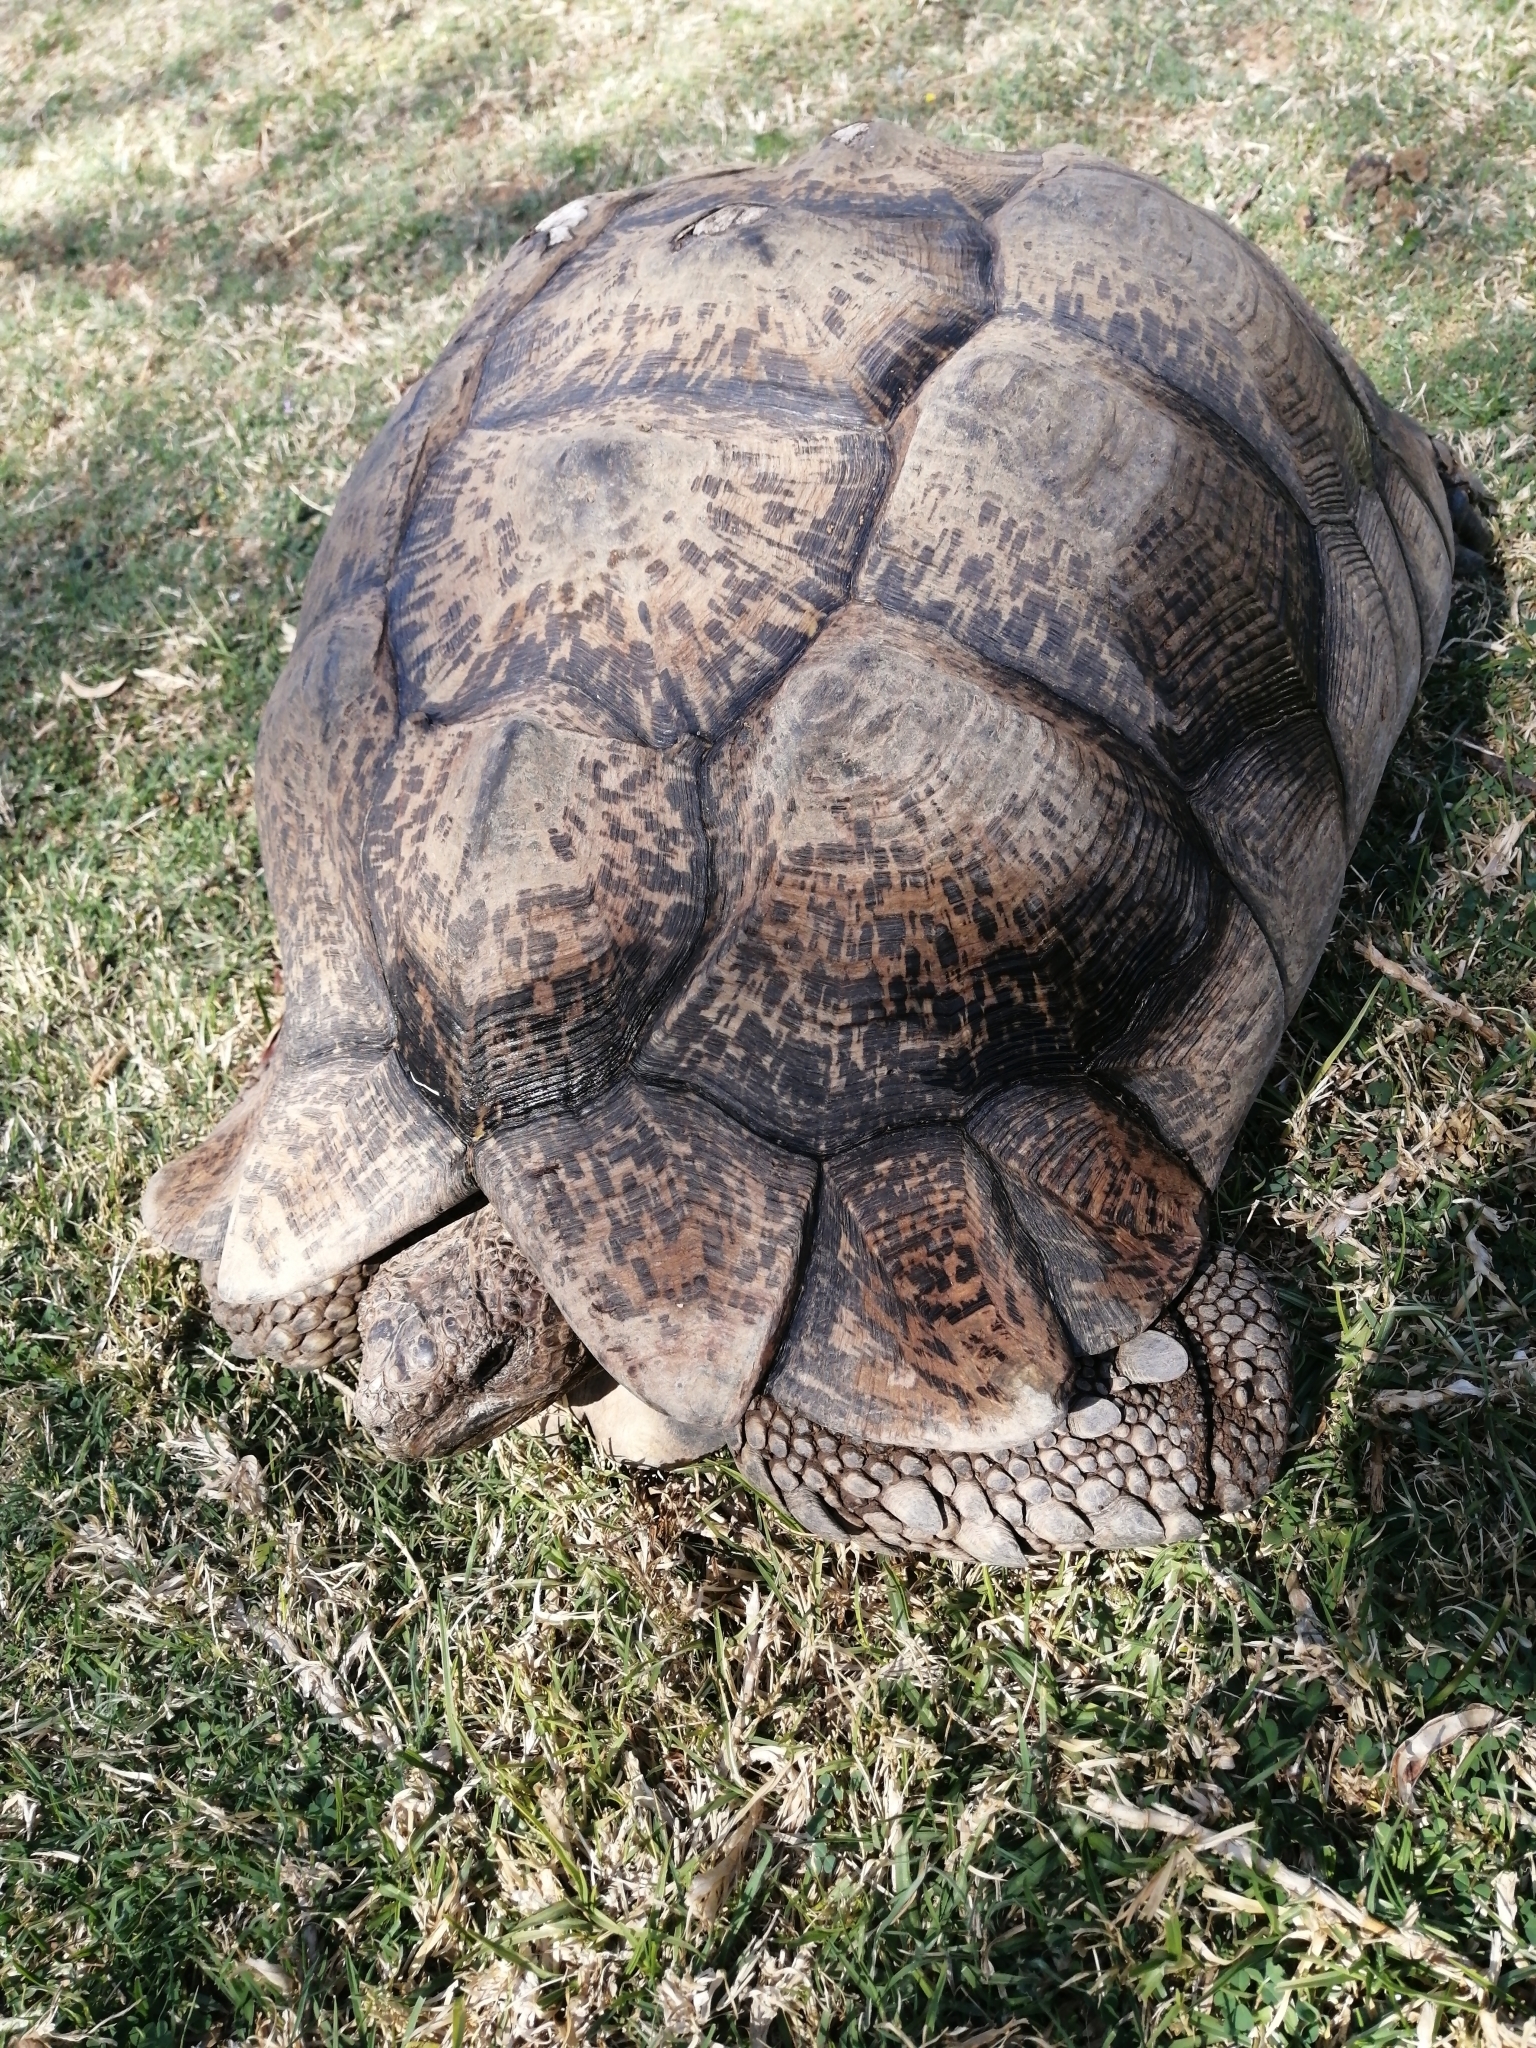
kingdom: Animalia
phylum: Chordata
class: Testudines
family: Testudinidae
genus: Stigmochelys
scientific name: Stigmochelys pardalis
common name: Leopard tortoise
